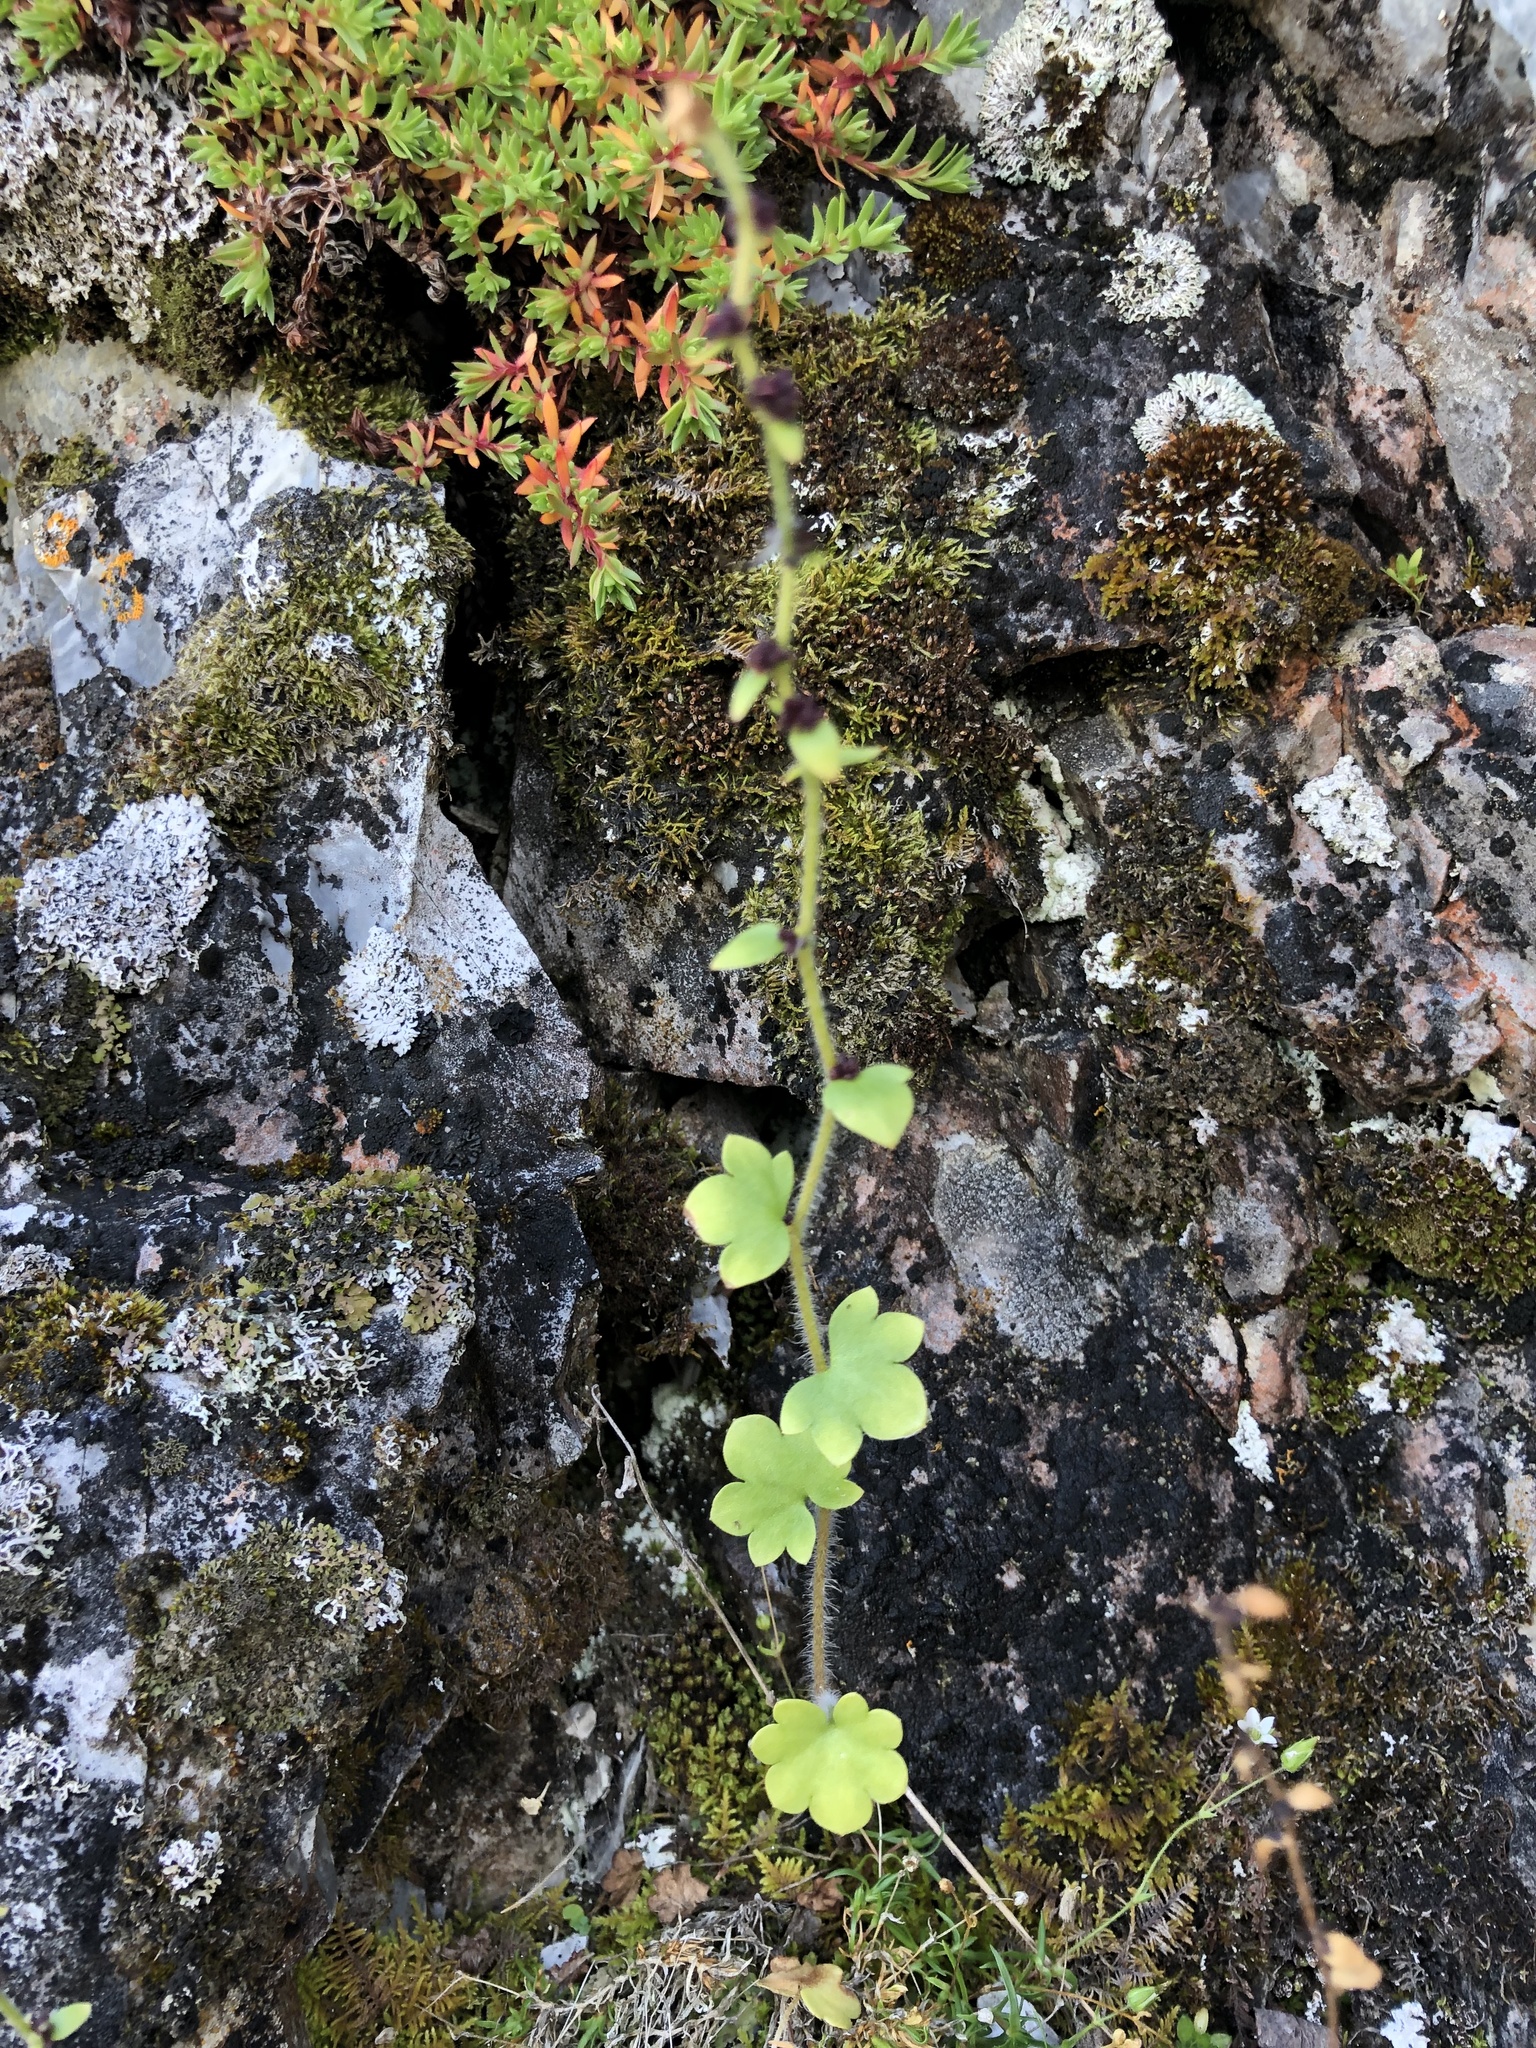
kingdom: Plantae
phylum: Tracheophyta
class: Magnoliopsida
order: Saxifragales
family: Saxifragaceae
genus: Saxifraga
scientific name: Saxifraga cernua
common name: Drooping saxifrage
